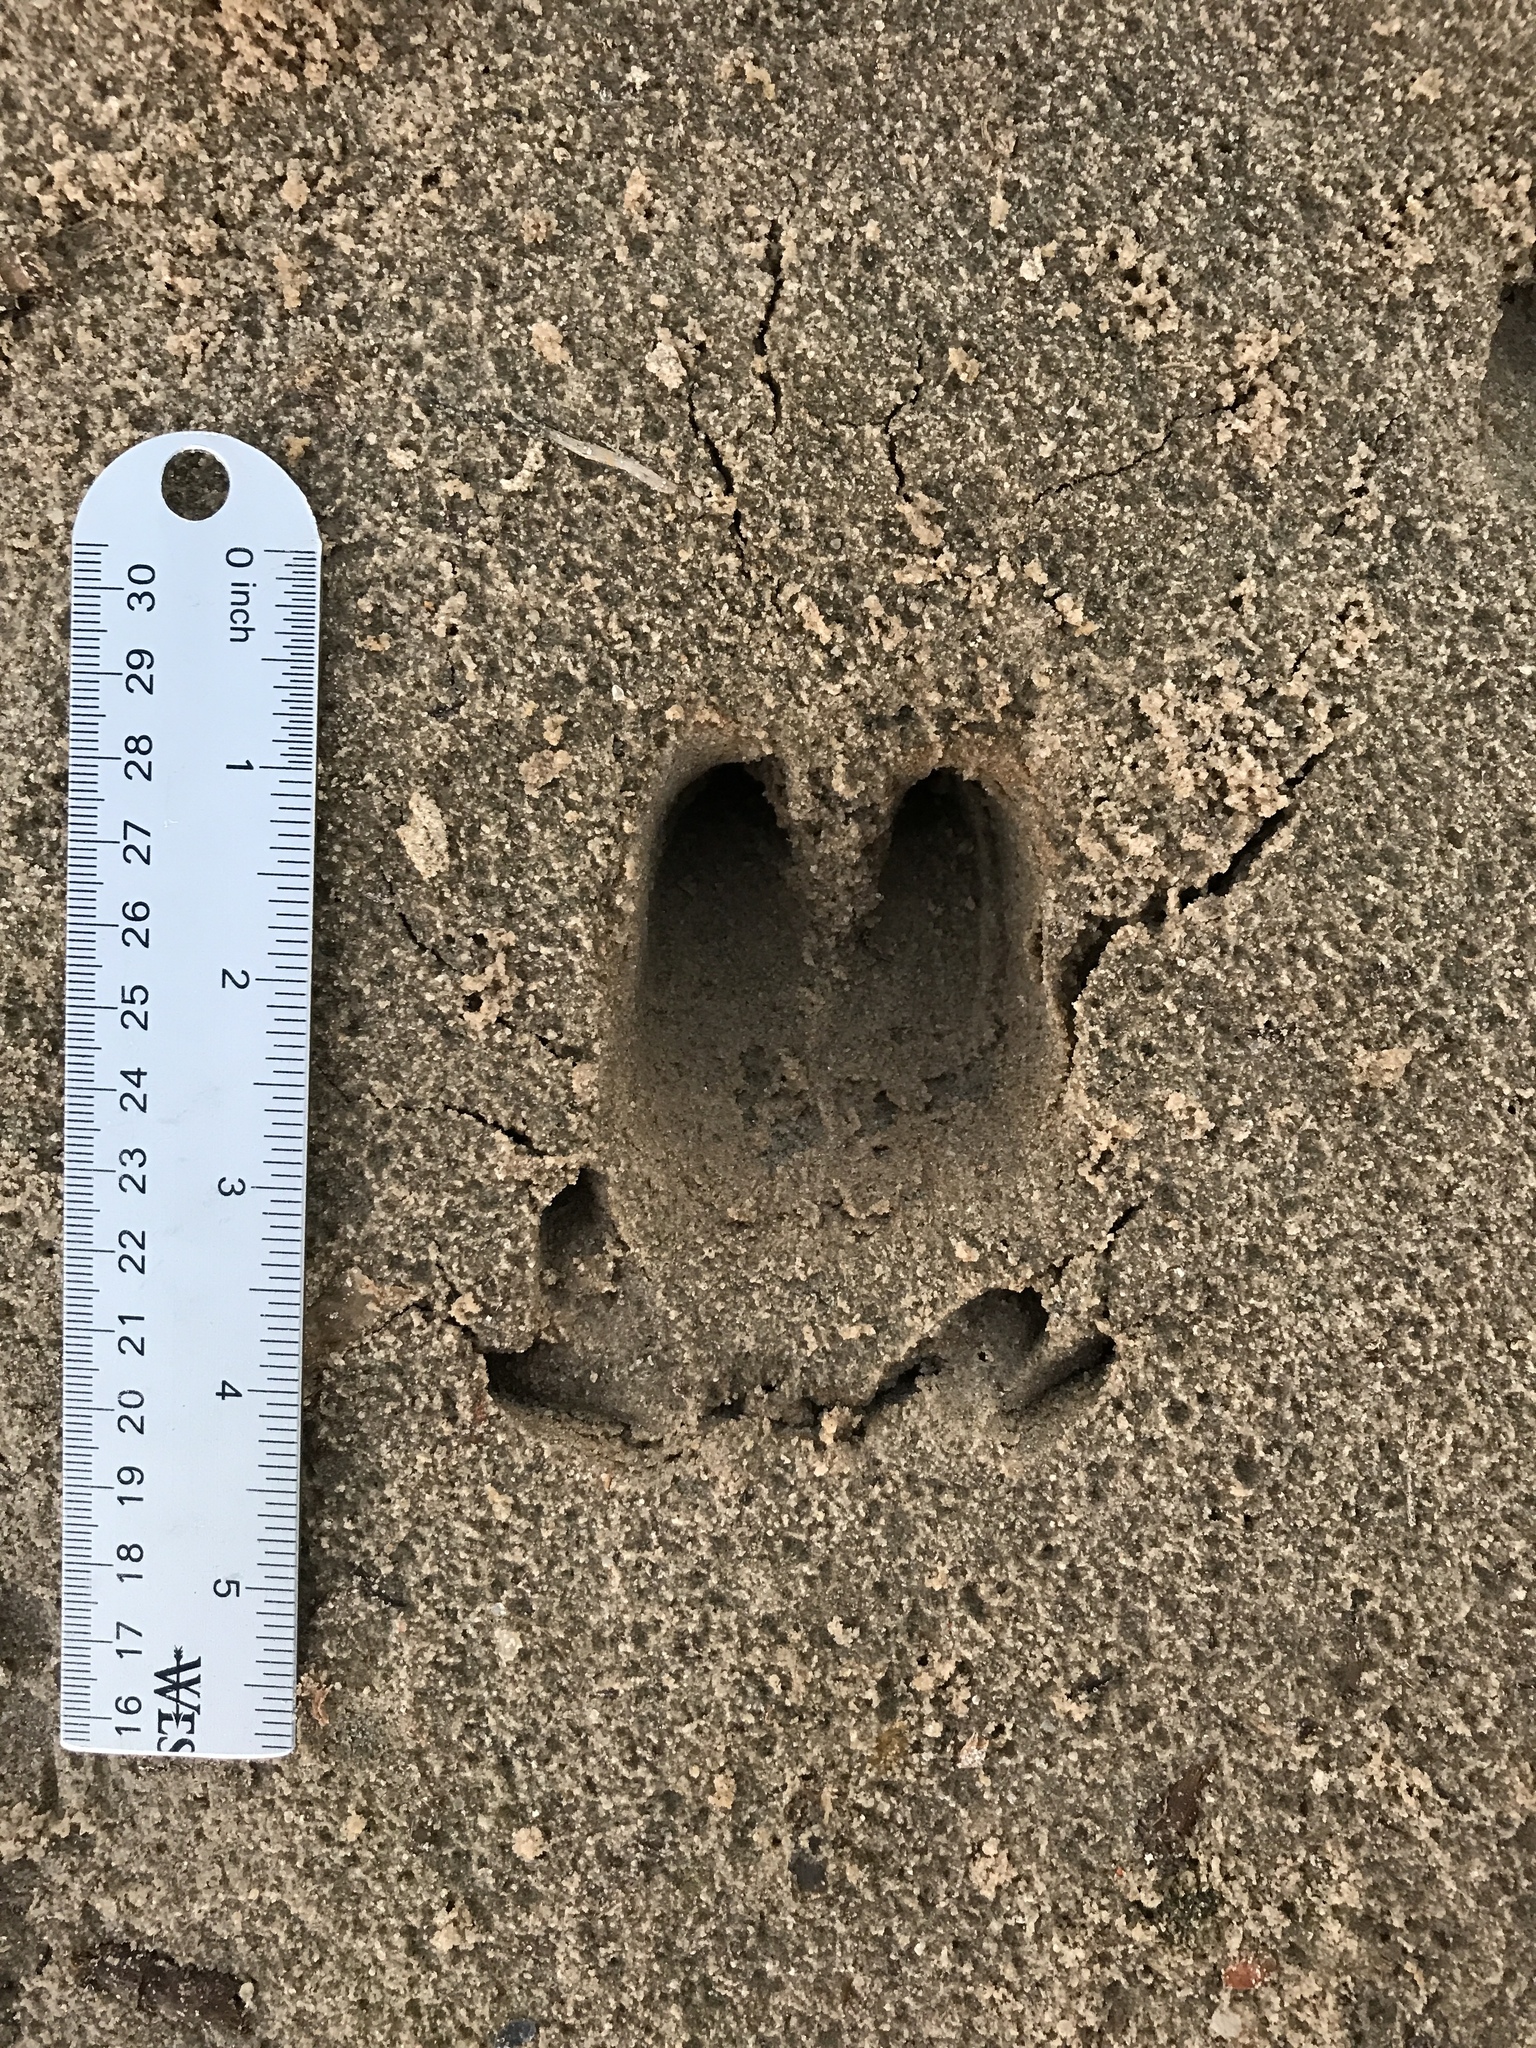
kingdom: Animalia
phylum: Chordata
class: Mammalia
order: Artiodactyla
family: Suidae
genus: Sus
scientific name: Sus scrofa
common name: Wild boar
